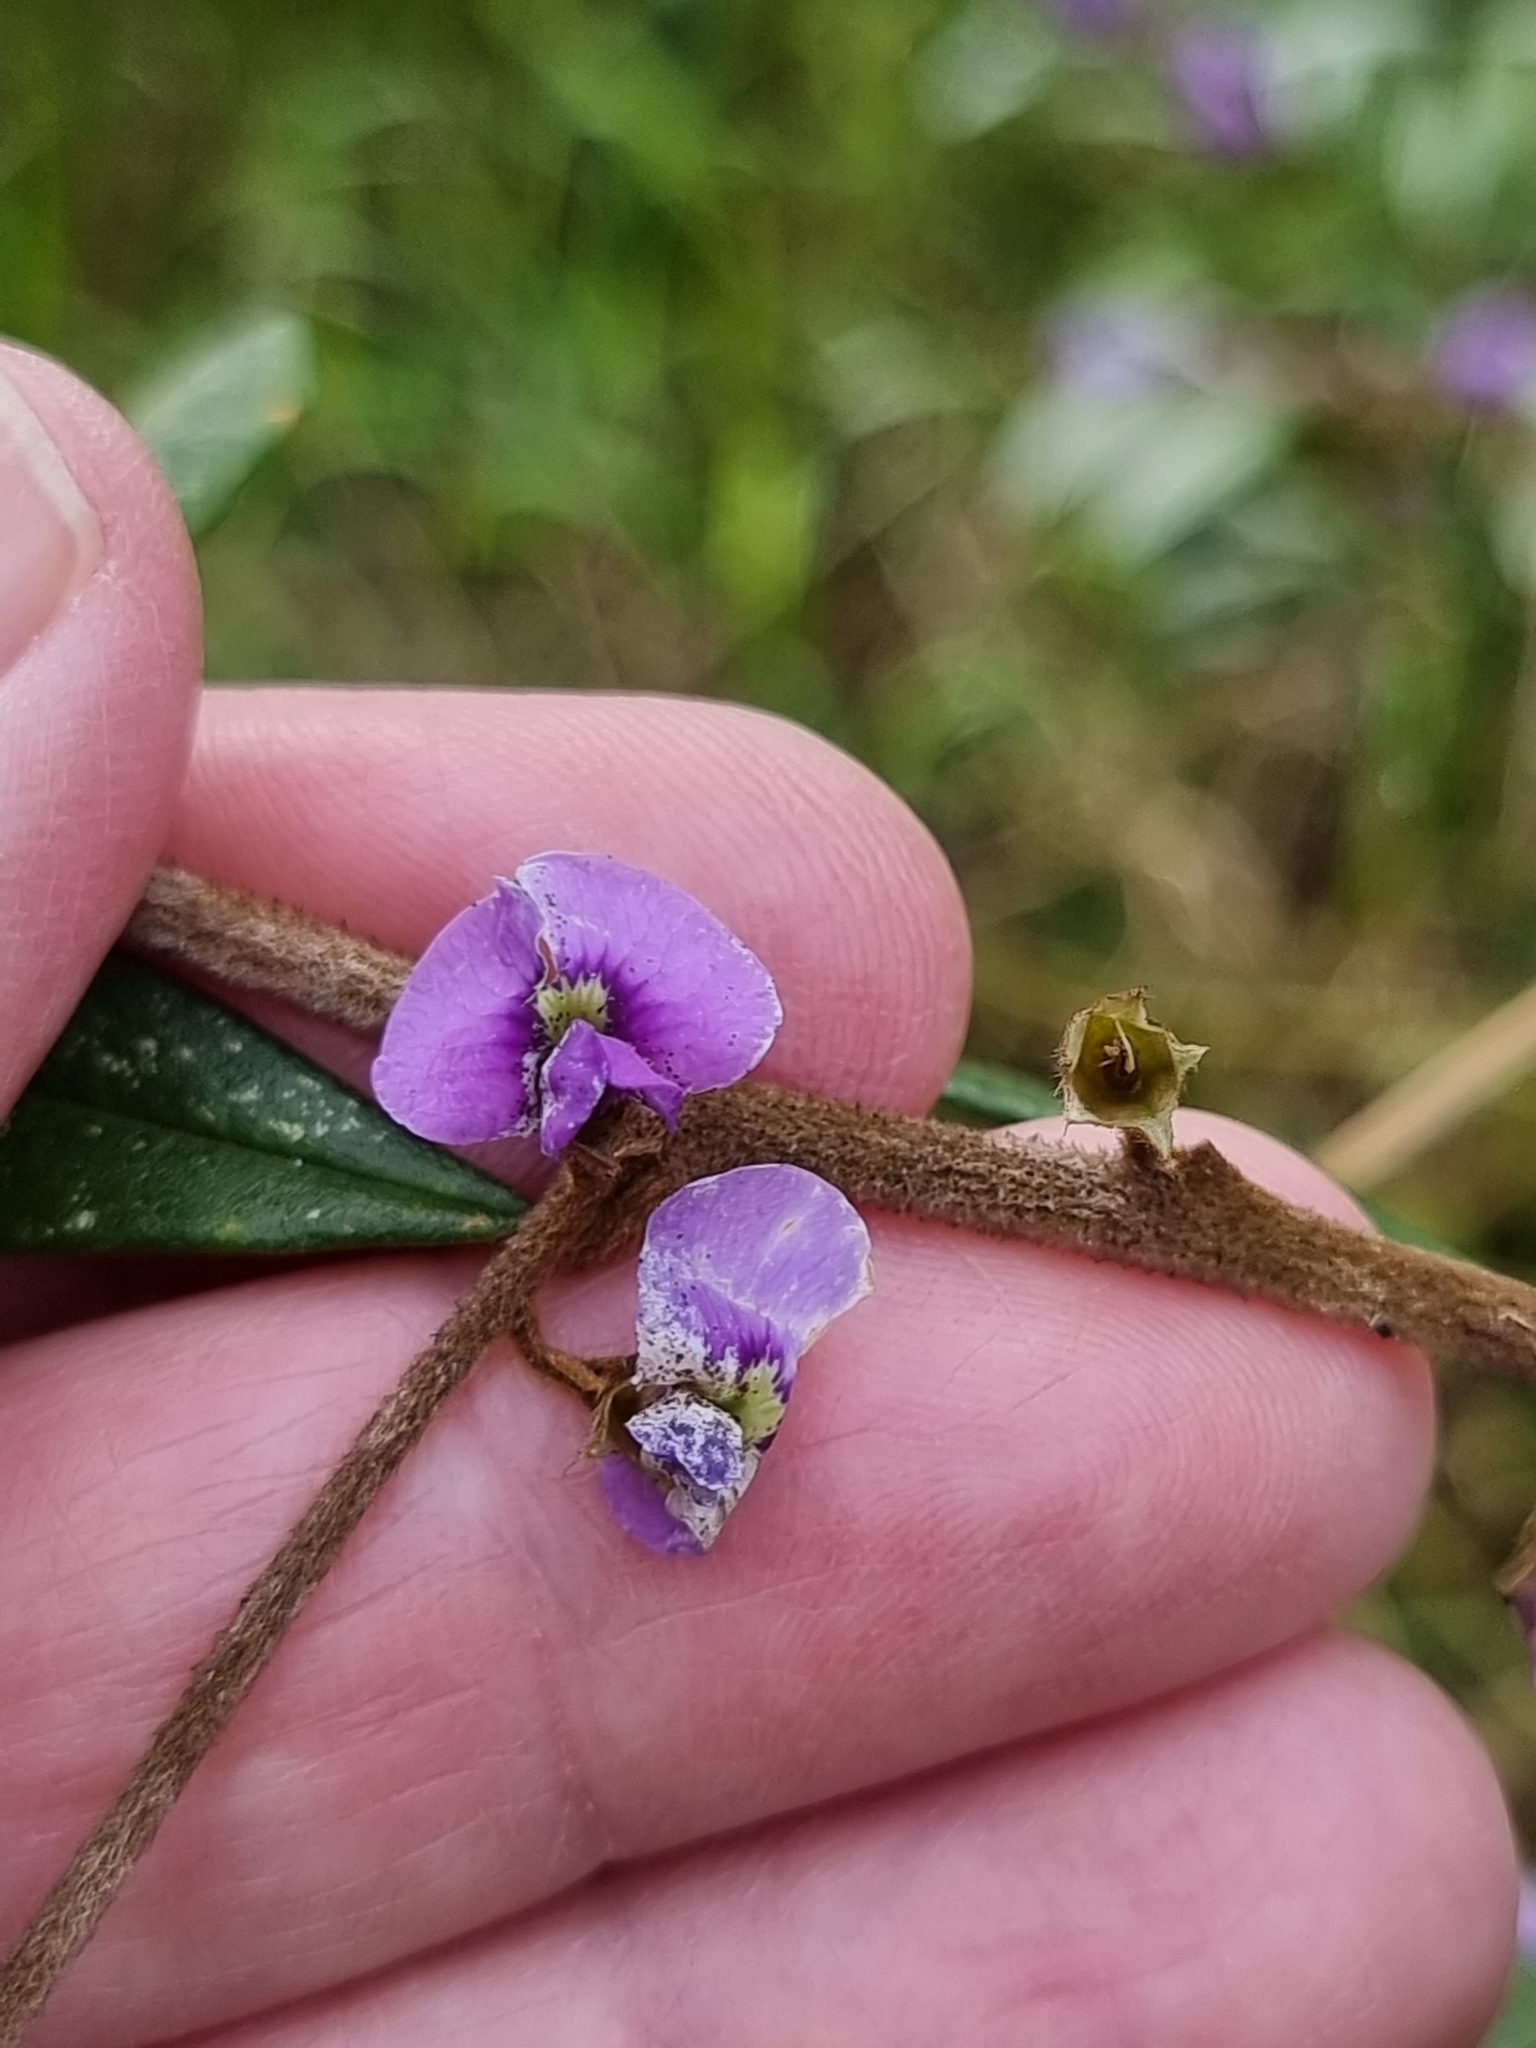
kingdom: Plantae
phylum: Tracheophyta
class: Magnoliopsida
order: Fabales
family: Fabaceae
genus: Hovea
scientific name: Hovea acutifolia
